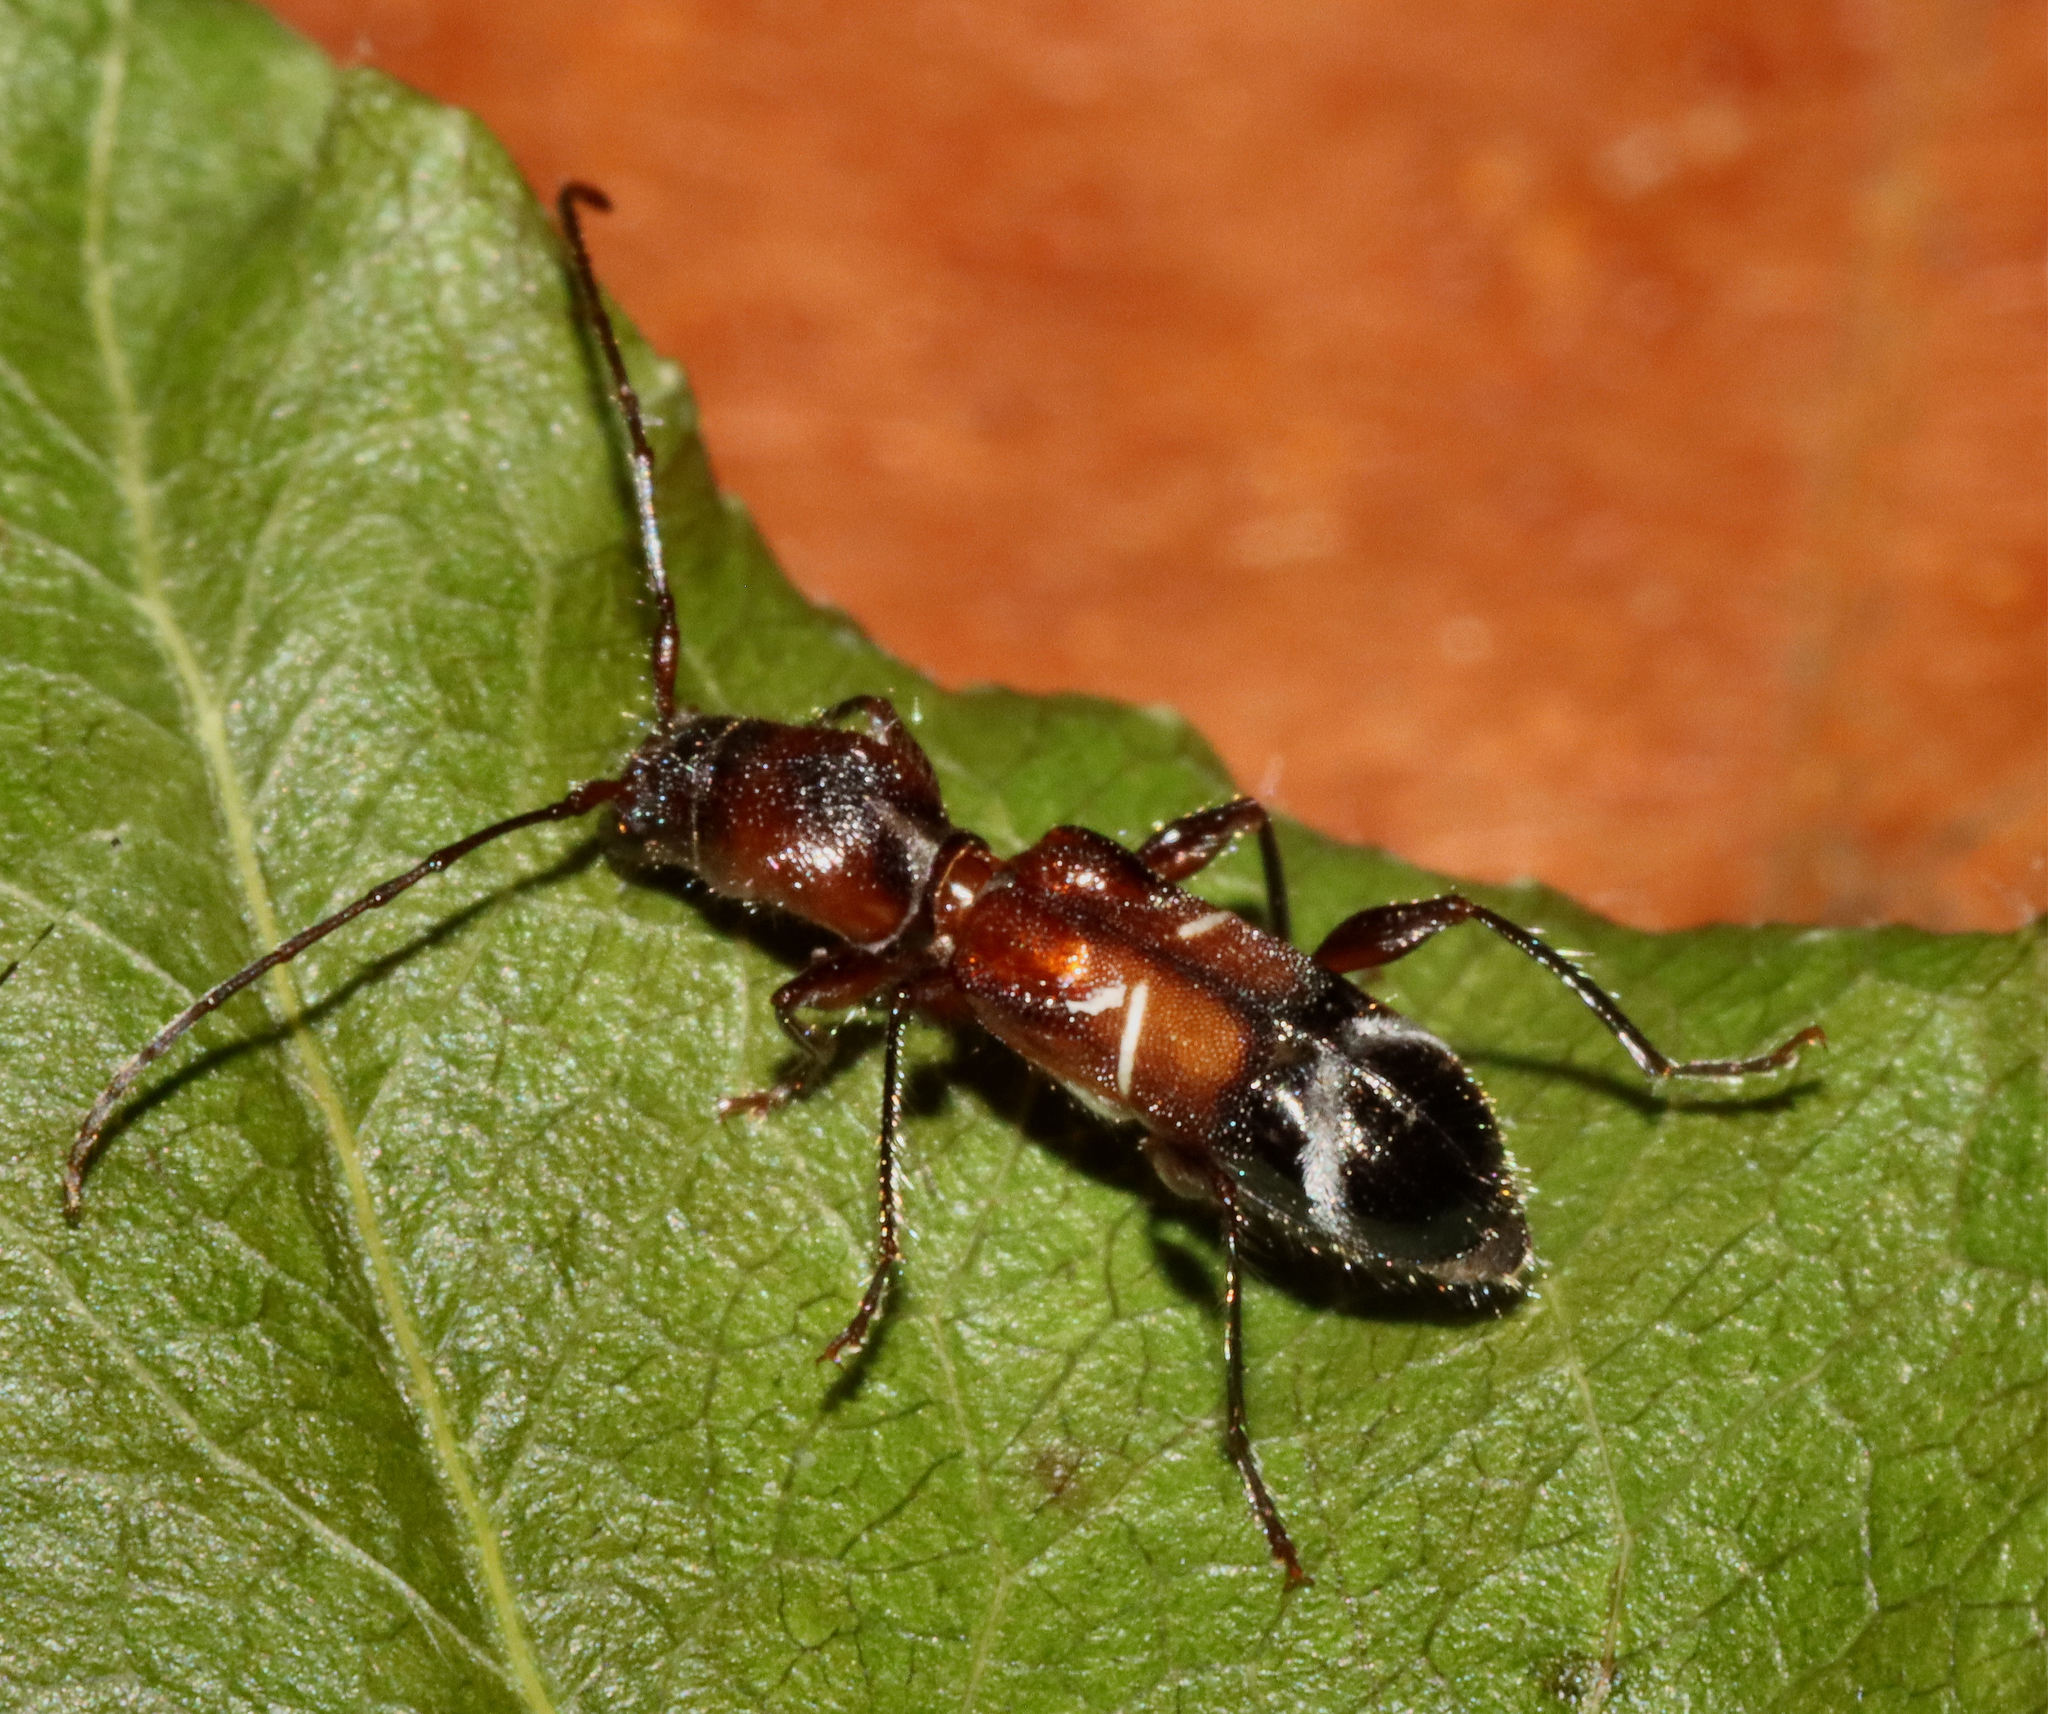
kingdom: Animalia
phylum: Arthropoda
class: Insecta
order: Coleoptera
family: Cerambycidae
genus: Euderces
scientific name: Euderces pini
